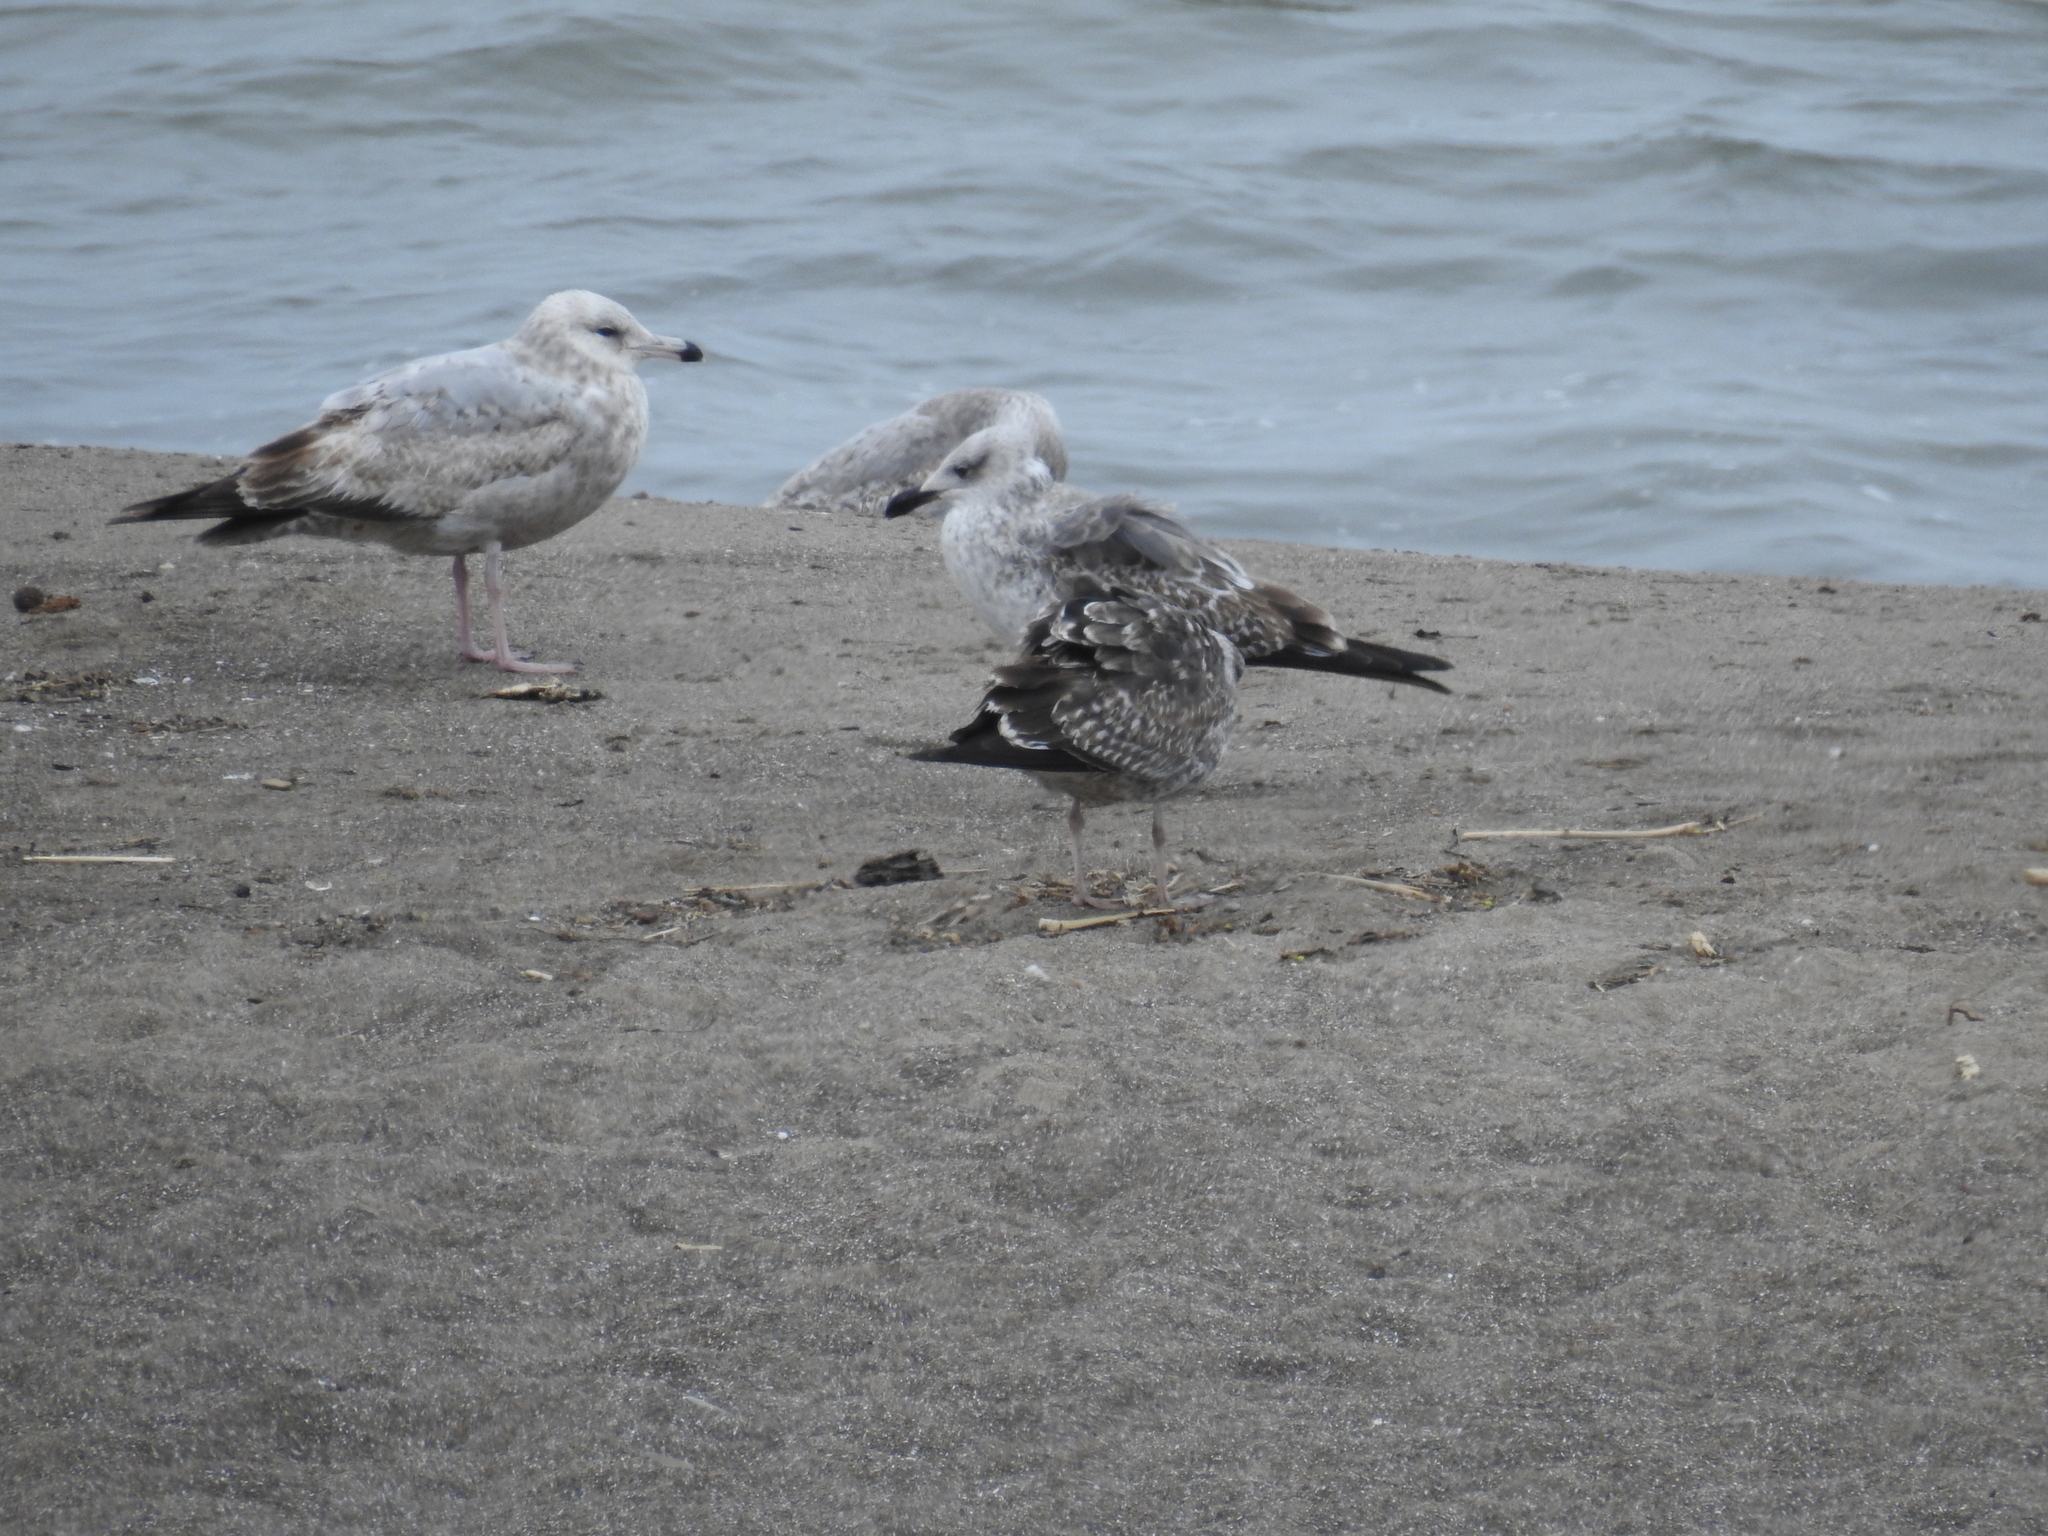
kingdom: Animalia
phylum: Chordata
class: Aves
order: Charadriiformes
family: Laridae
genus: Larus
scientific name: Larus fuscus
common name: Lesser black-backed gull
